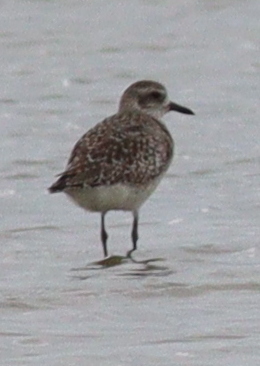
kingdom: Animalia
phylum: Chordata
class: Aves
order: Charadriiformes
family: Charadriidae
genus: Pluvialis
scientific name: Pluvialis squatarola
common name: Grey plover
